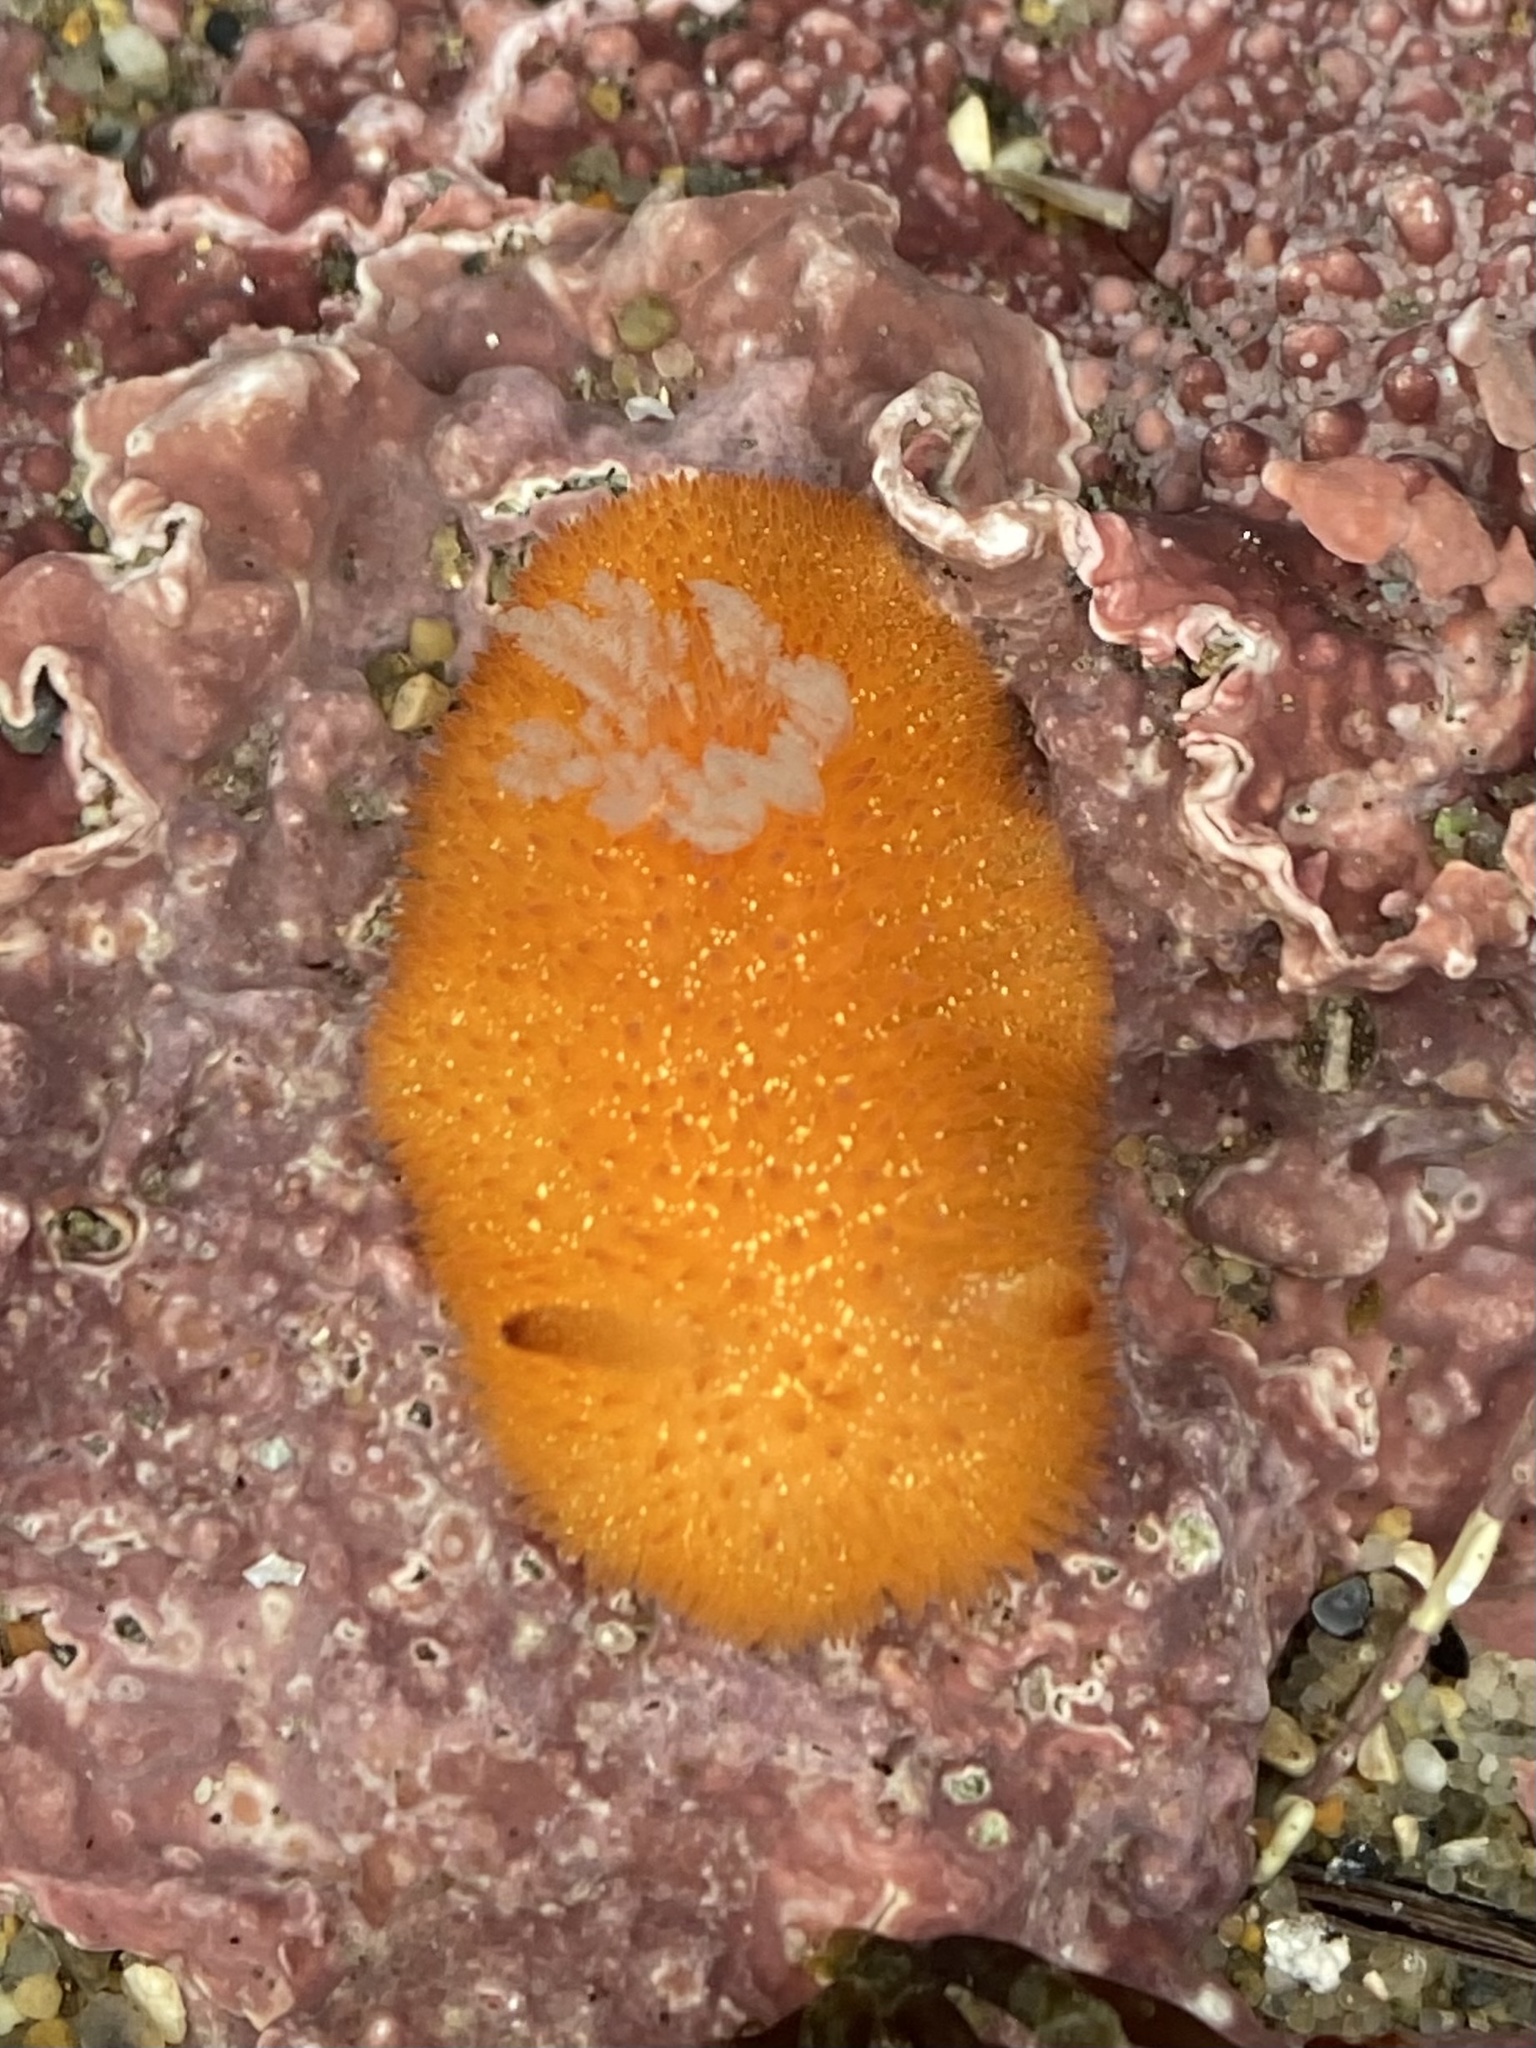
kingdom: Animalia
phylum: Mollusca
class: Gastropoda
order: Nudibranchia
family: Onchidorididae
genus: Acanthodoris
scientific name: Acanthodoris lutea
